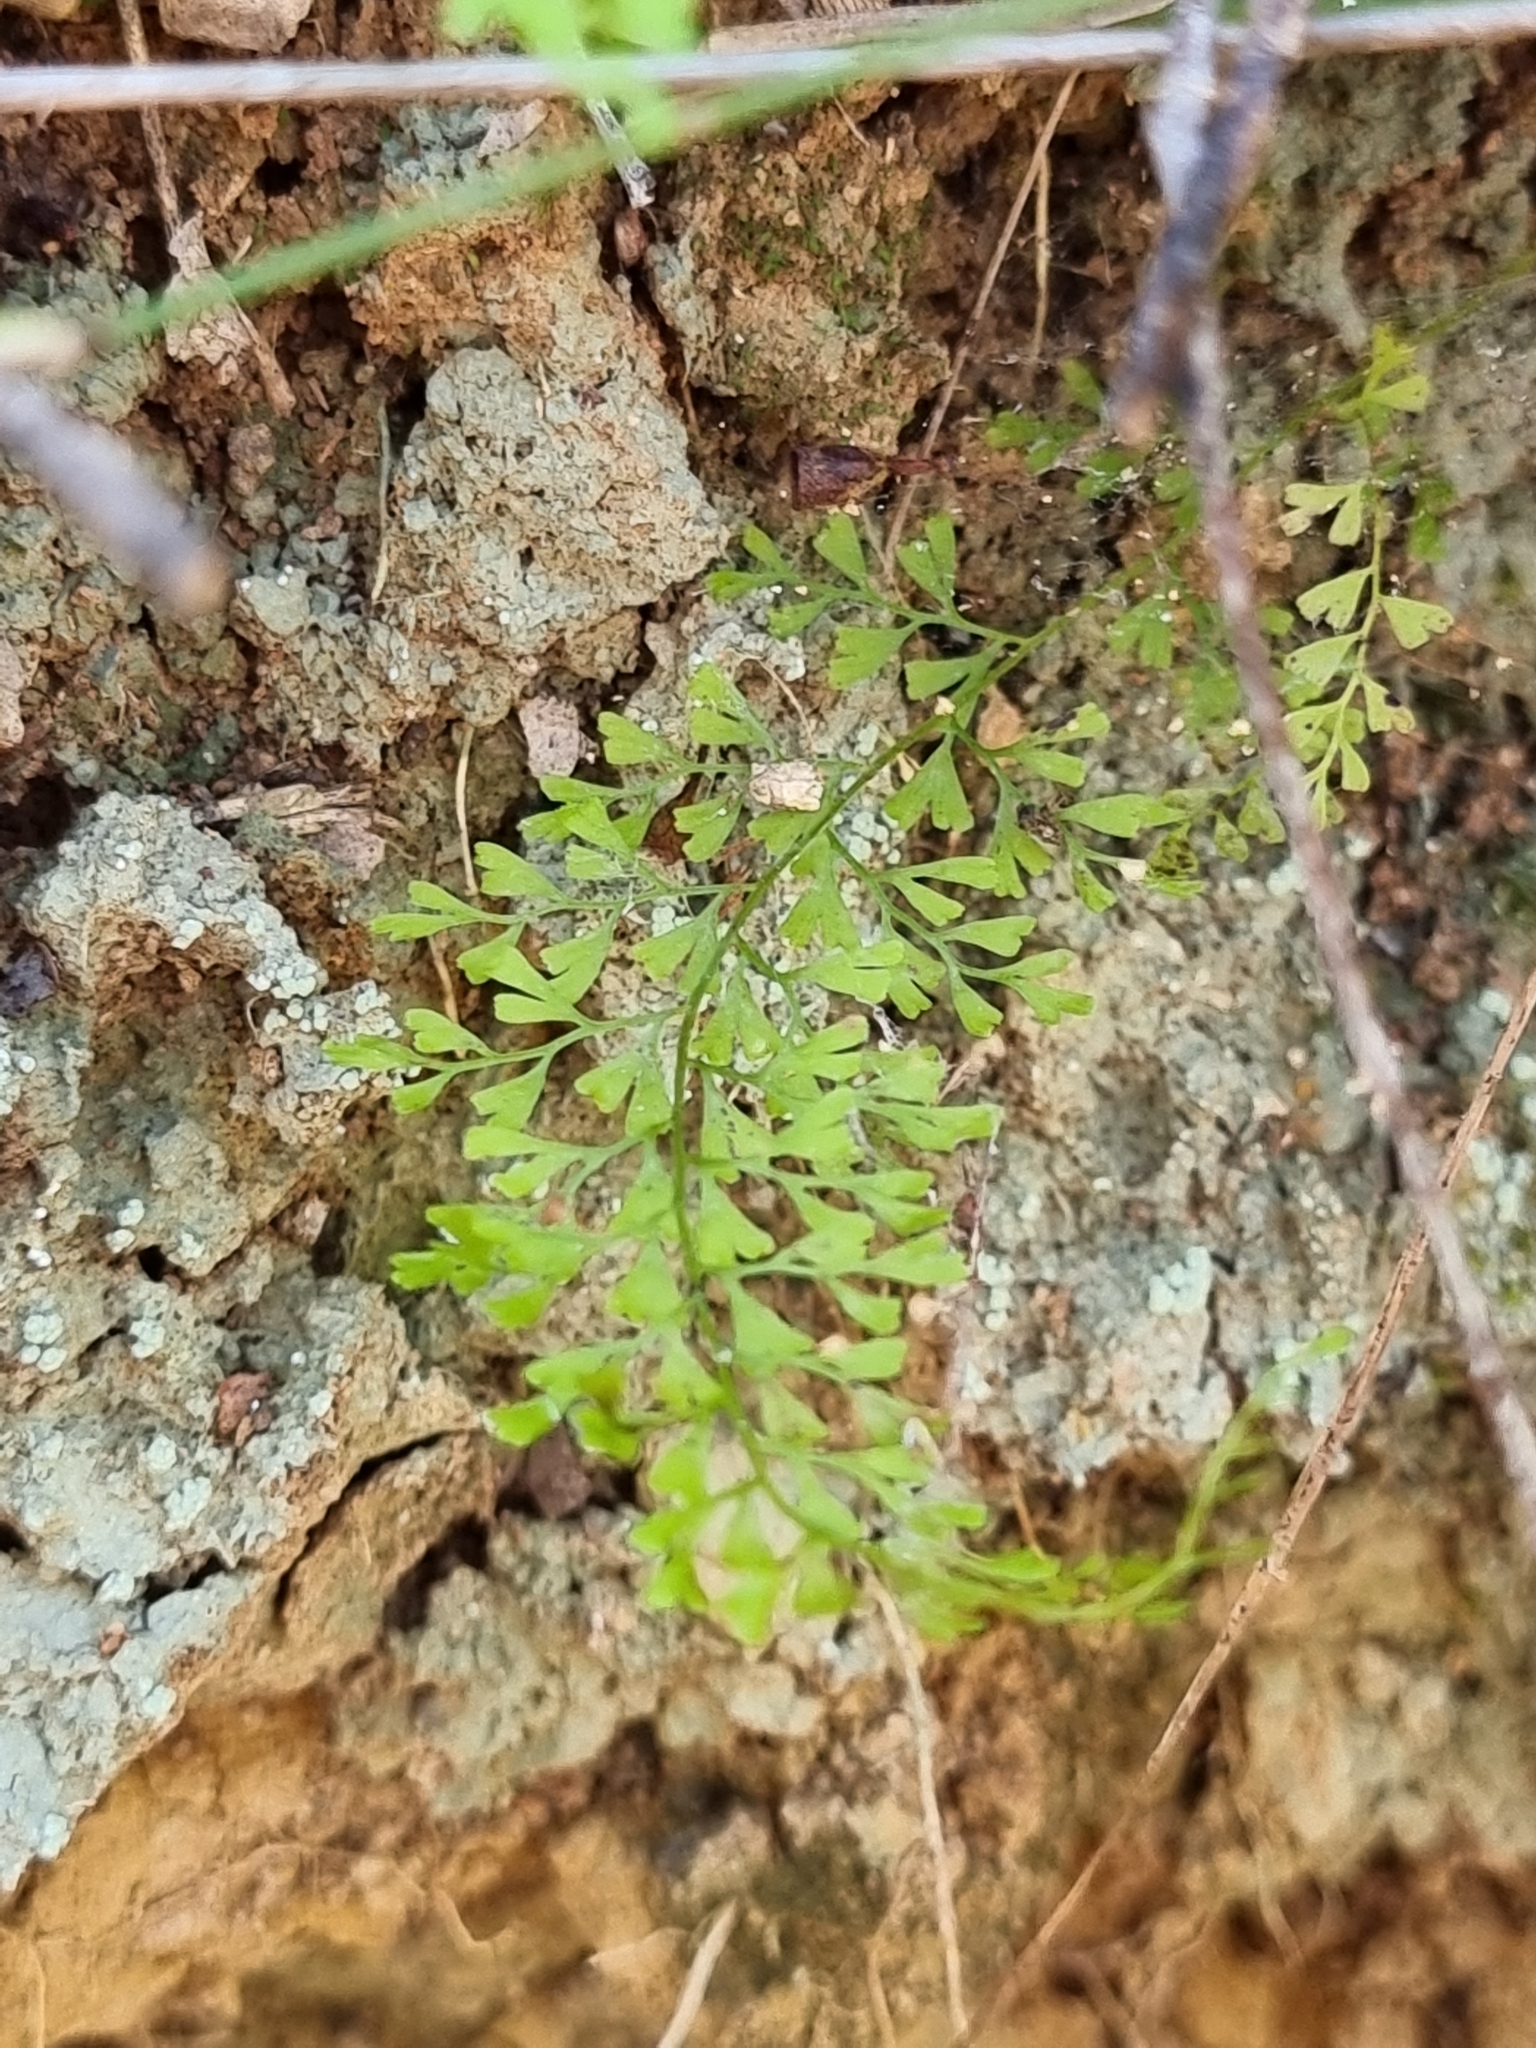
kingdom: Plantae
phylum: Tracheophyta
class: Polypodiopsida
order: Polypodiales
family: Lindsaeaceae
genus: Lindsaea
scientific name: Lindsaea microphylla
